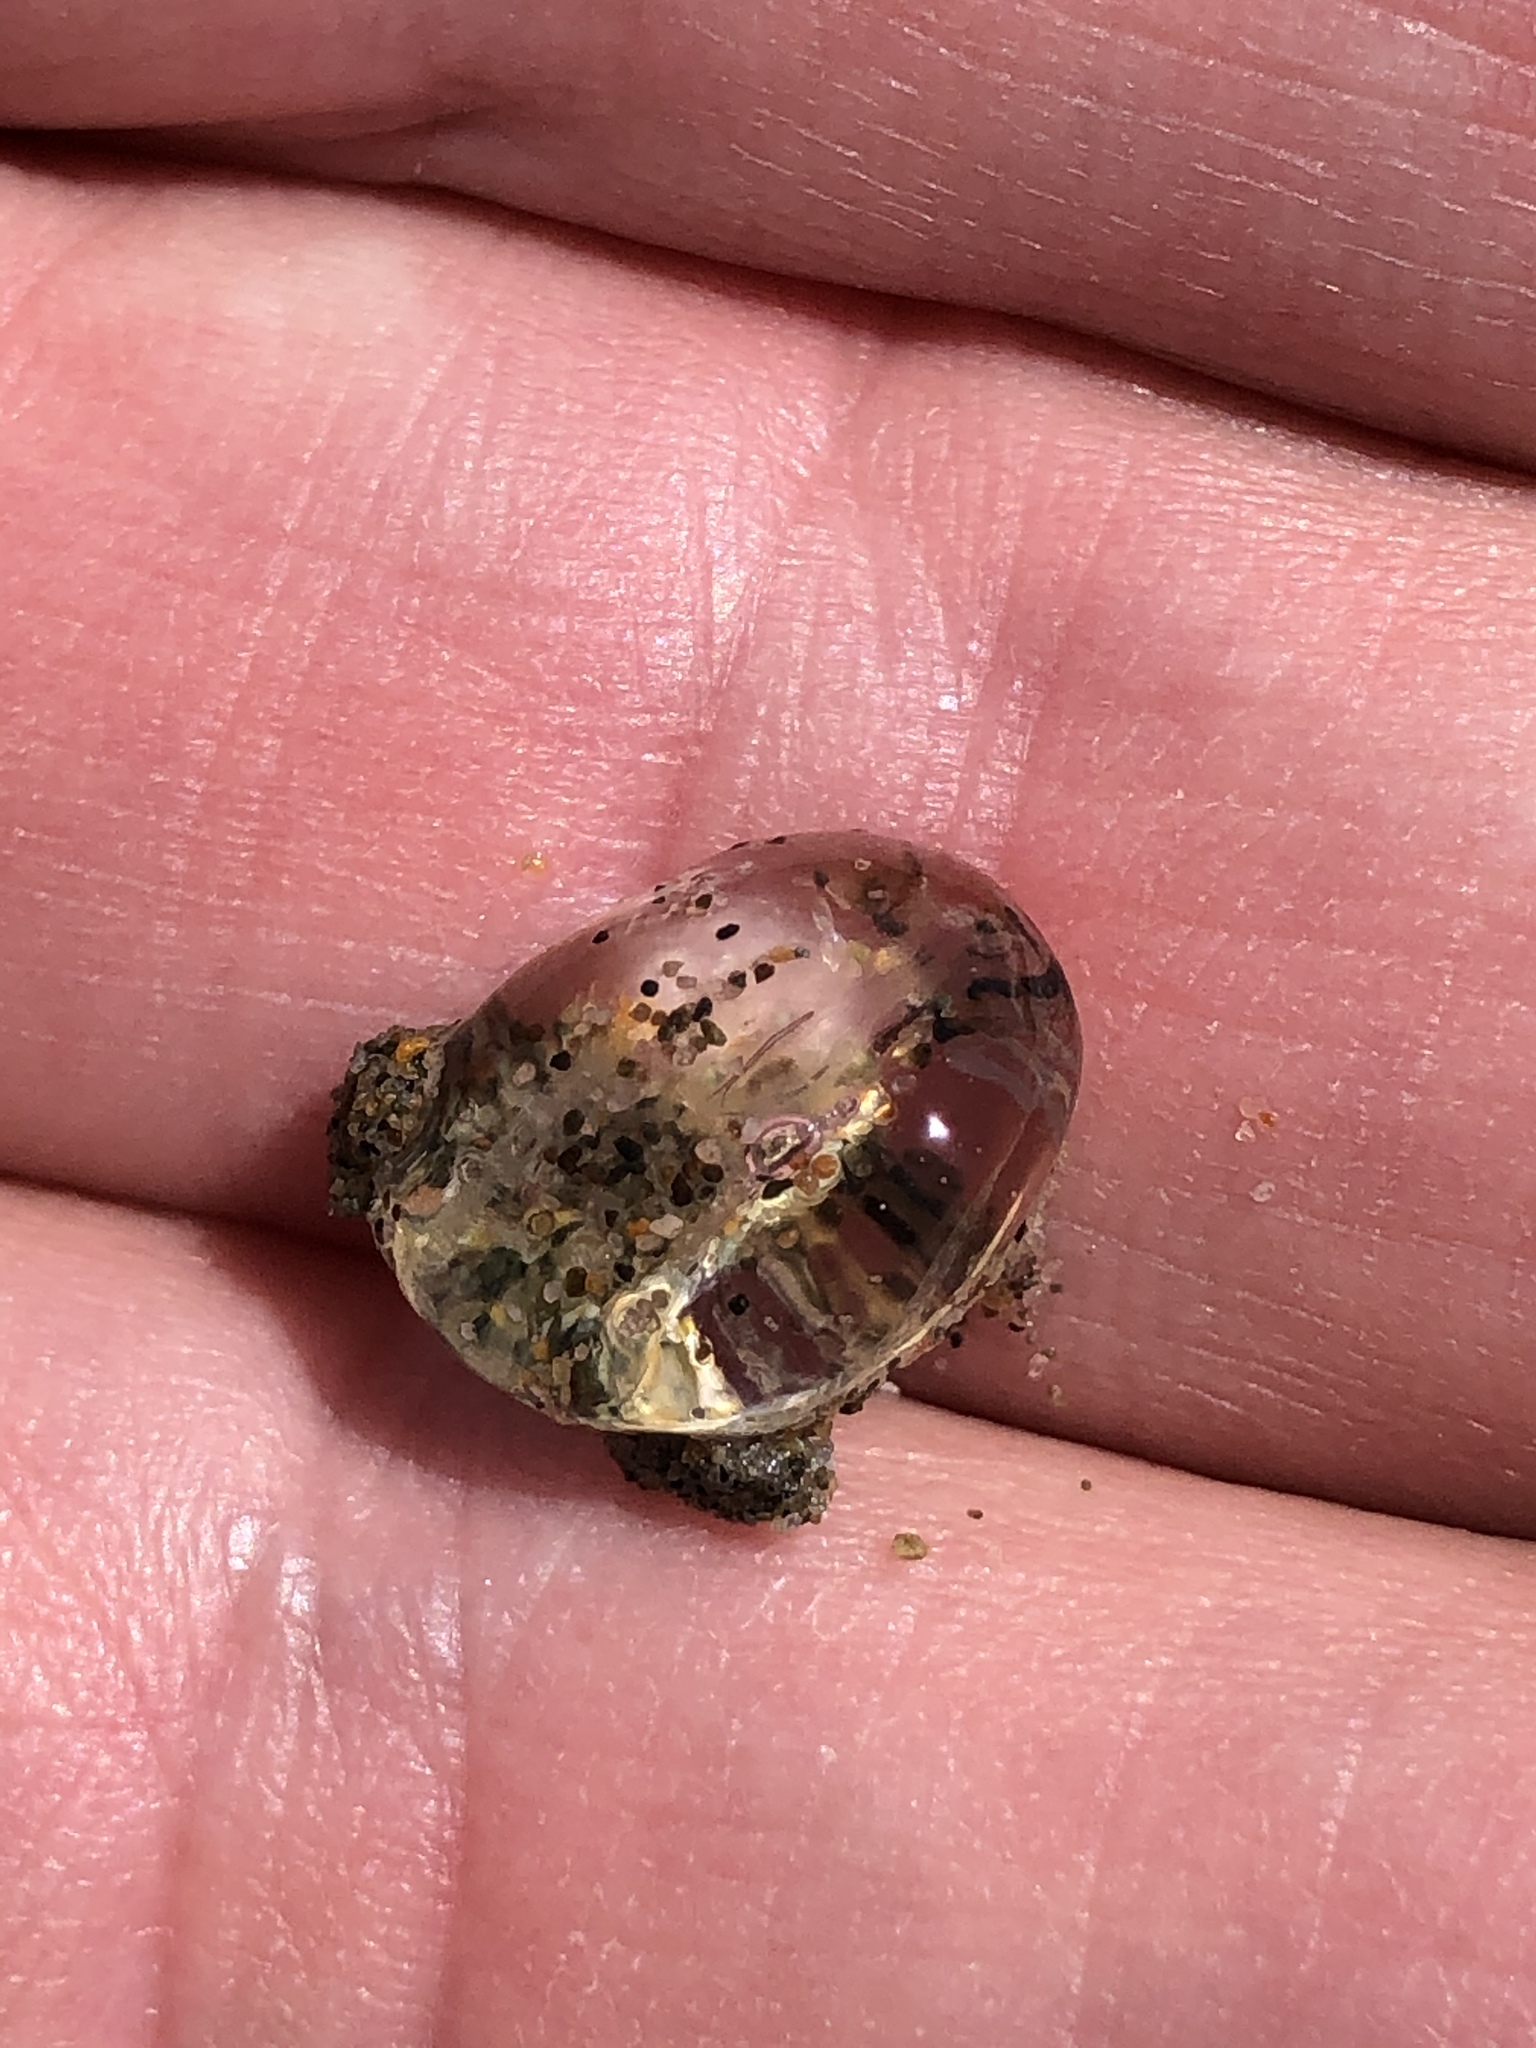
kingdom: Animalia
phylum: Ctenophora
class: Tentaculata
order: Cydippida
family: Pleurobrachiidae
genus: Pleurobrachia
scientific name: Pleurobrachia bachei
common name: Pacific sea gooseberry
